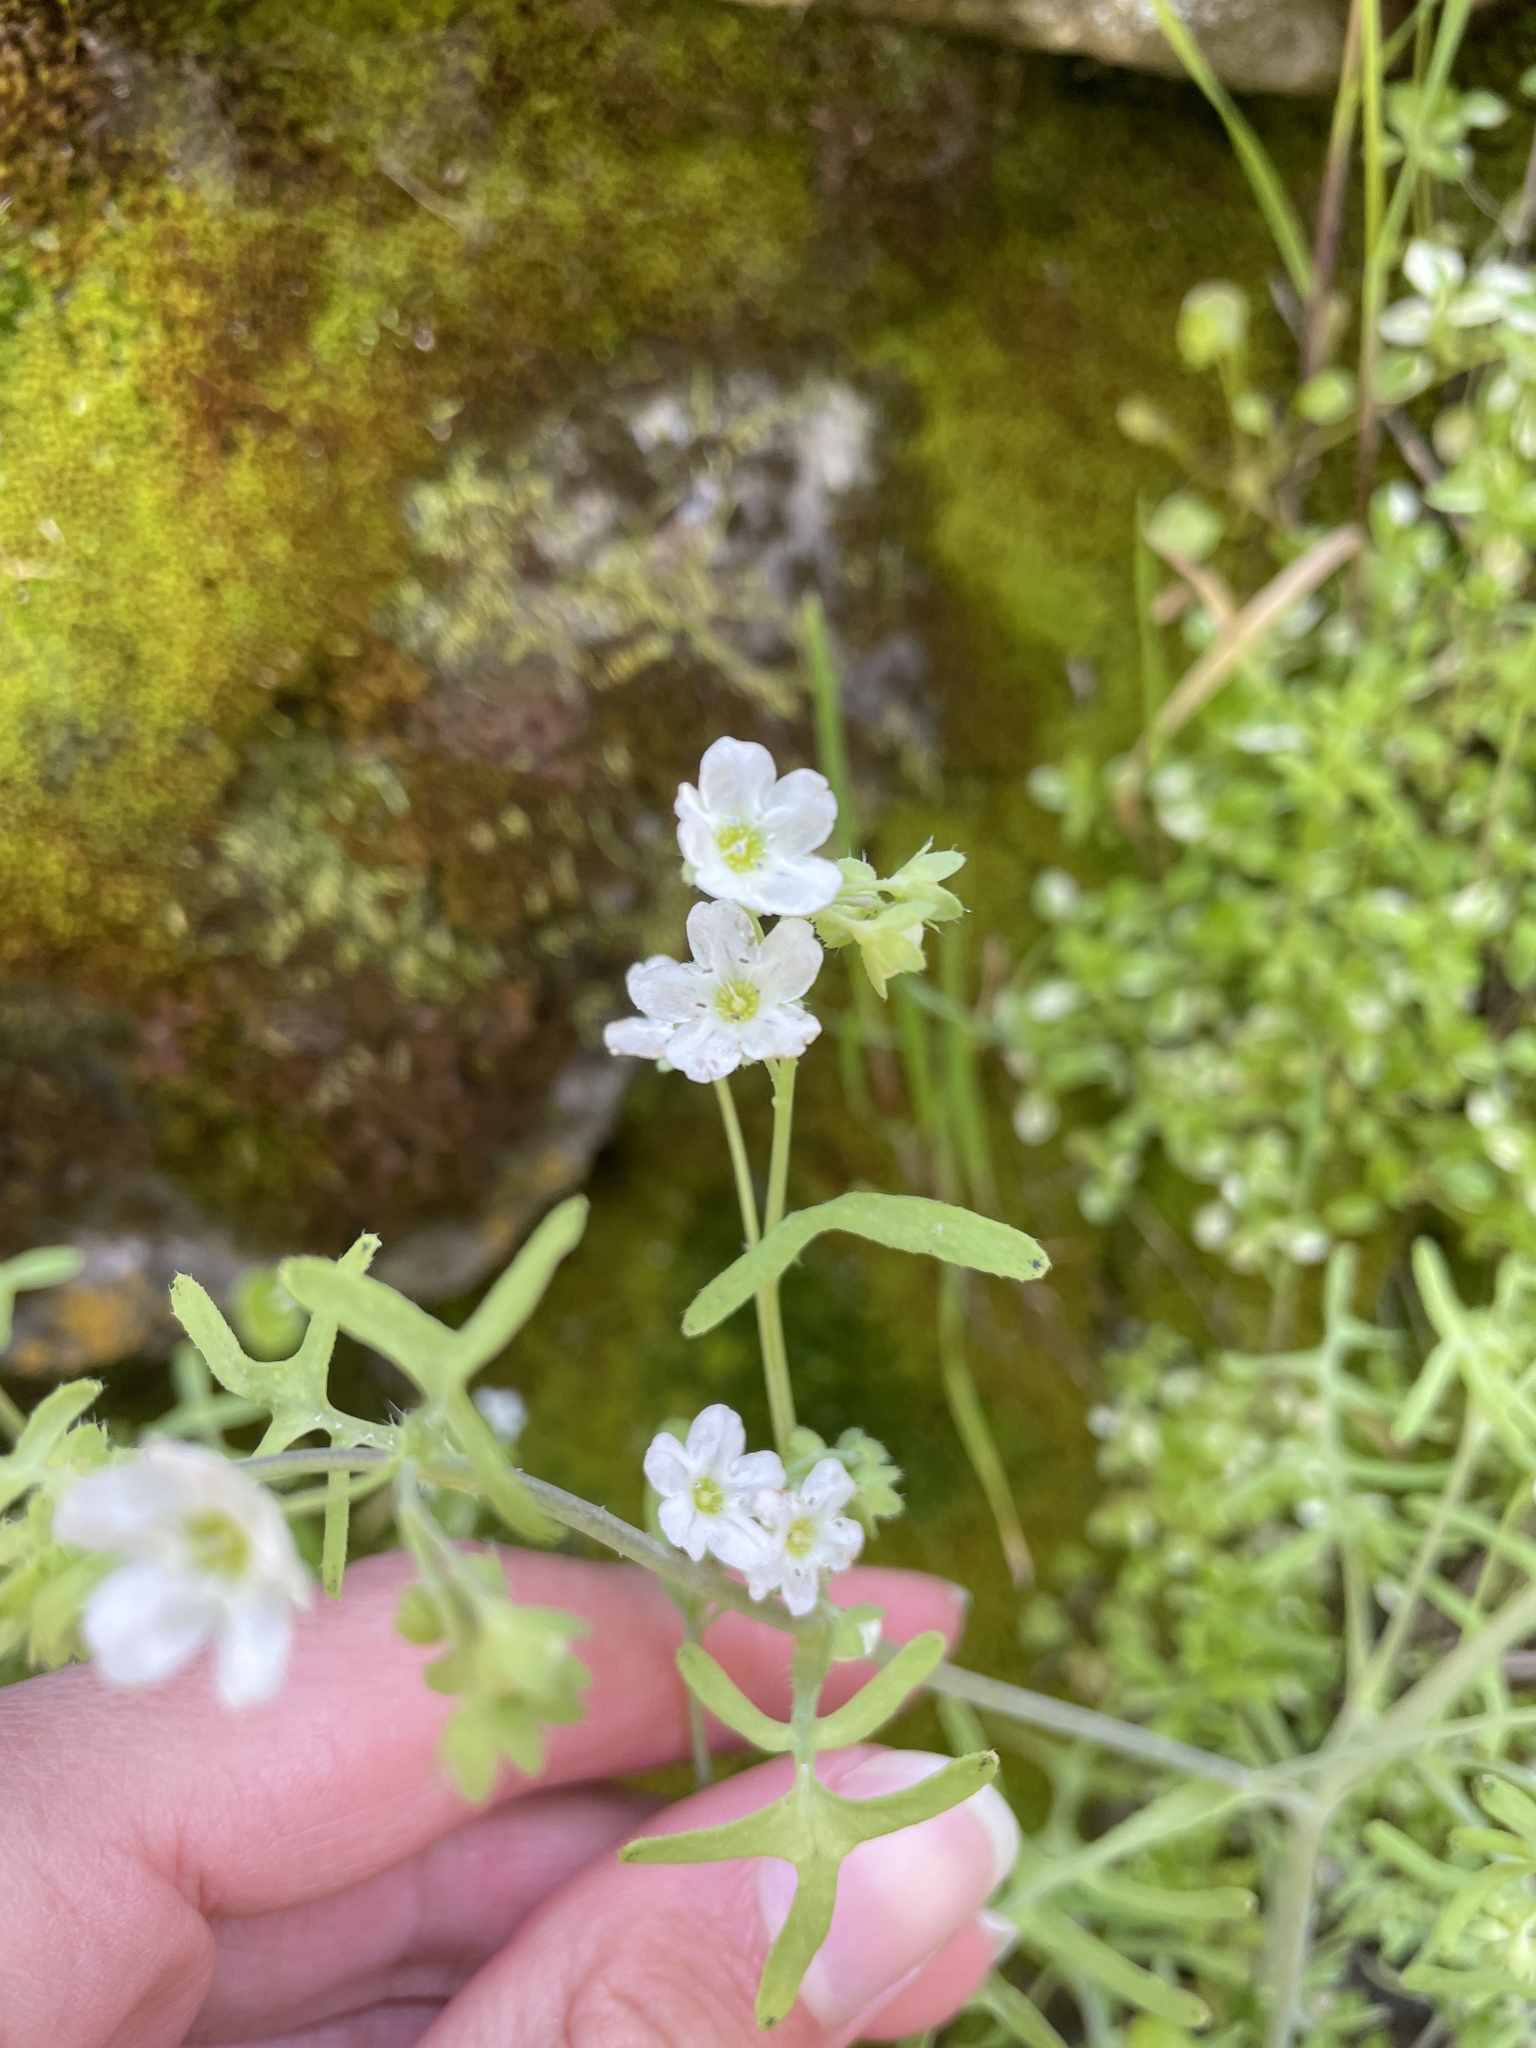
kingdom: Plantae
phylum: Tracheophyta
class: Magnoliopsida
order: Boraginales
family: Hydrophyllaceae
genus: Pholistoma
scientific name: Pholistoma membranaceum
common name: White fiesta-flower
